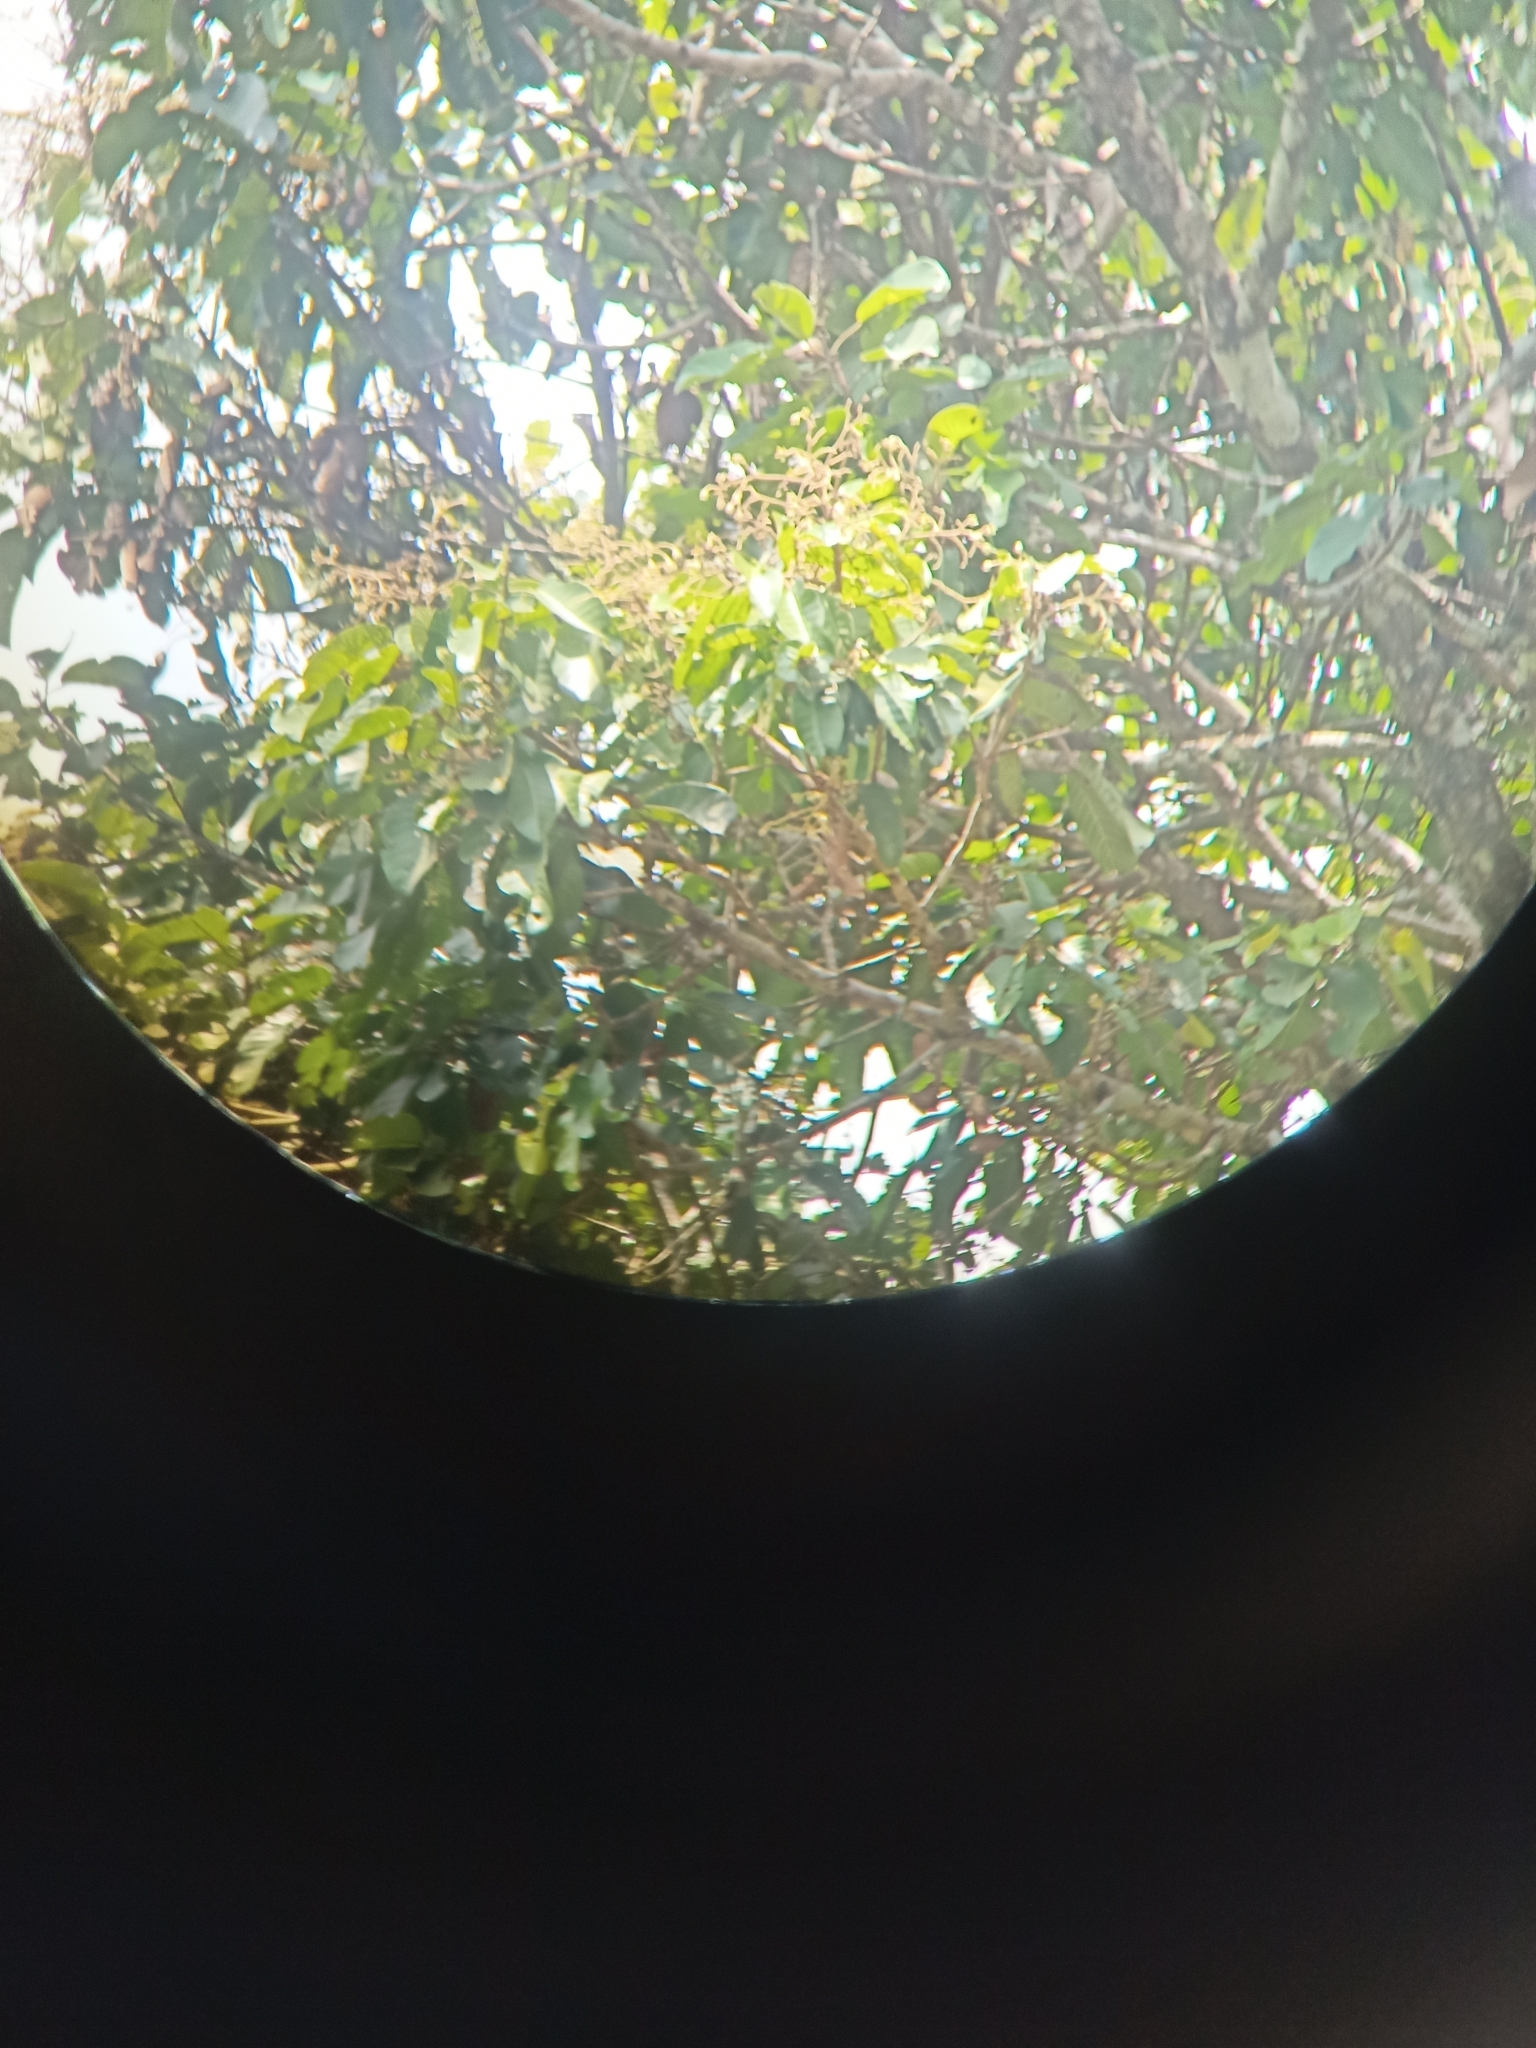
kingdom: Plantae
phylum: Tracheophyta
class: Magnoliopsida
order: Malvales
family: Dipterocarpaceae
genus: Vateria
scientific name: Vateria indica
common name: White dammar
